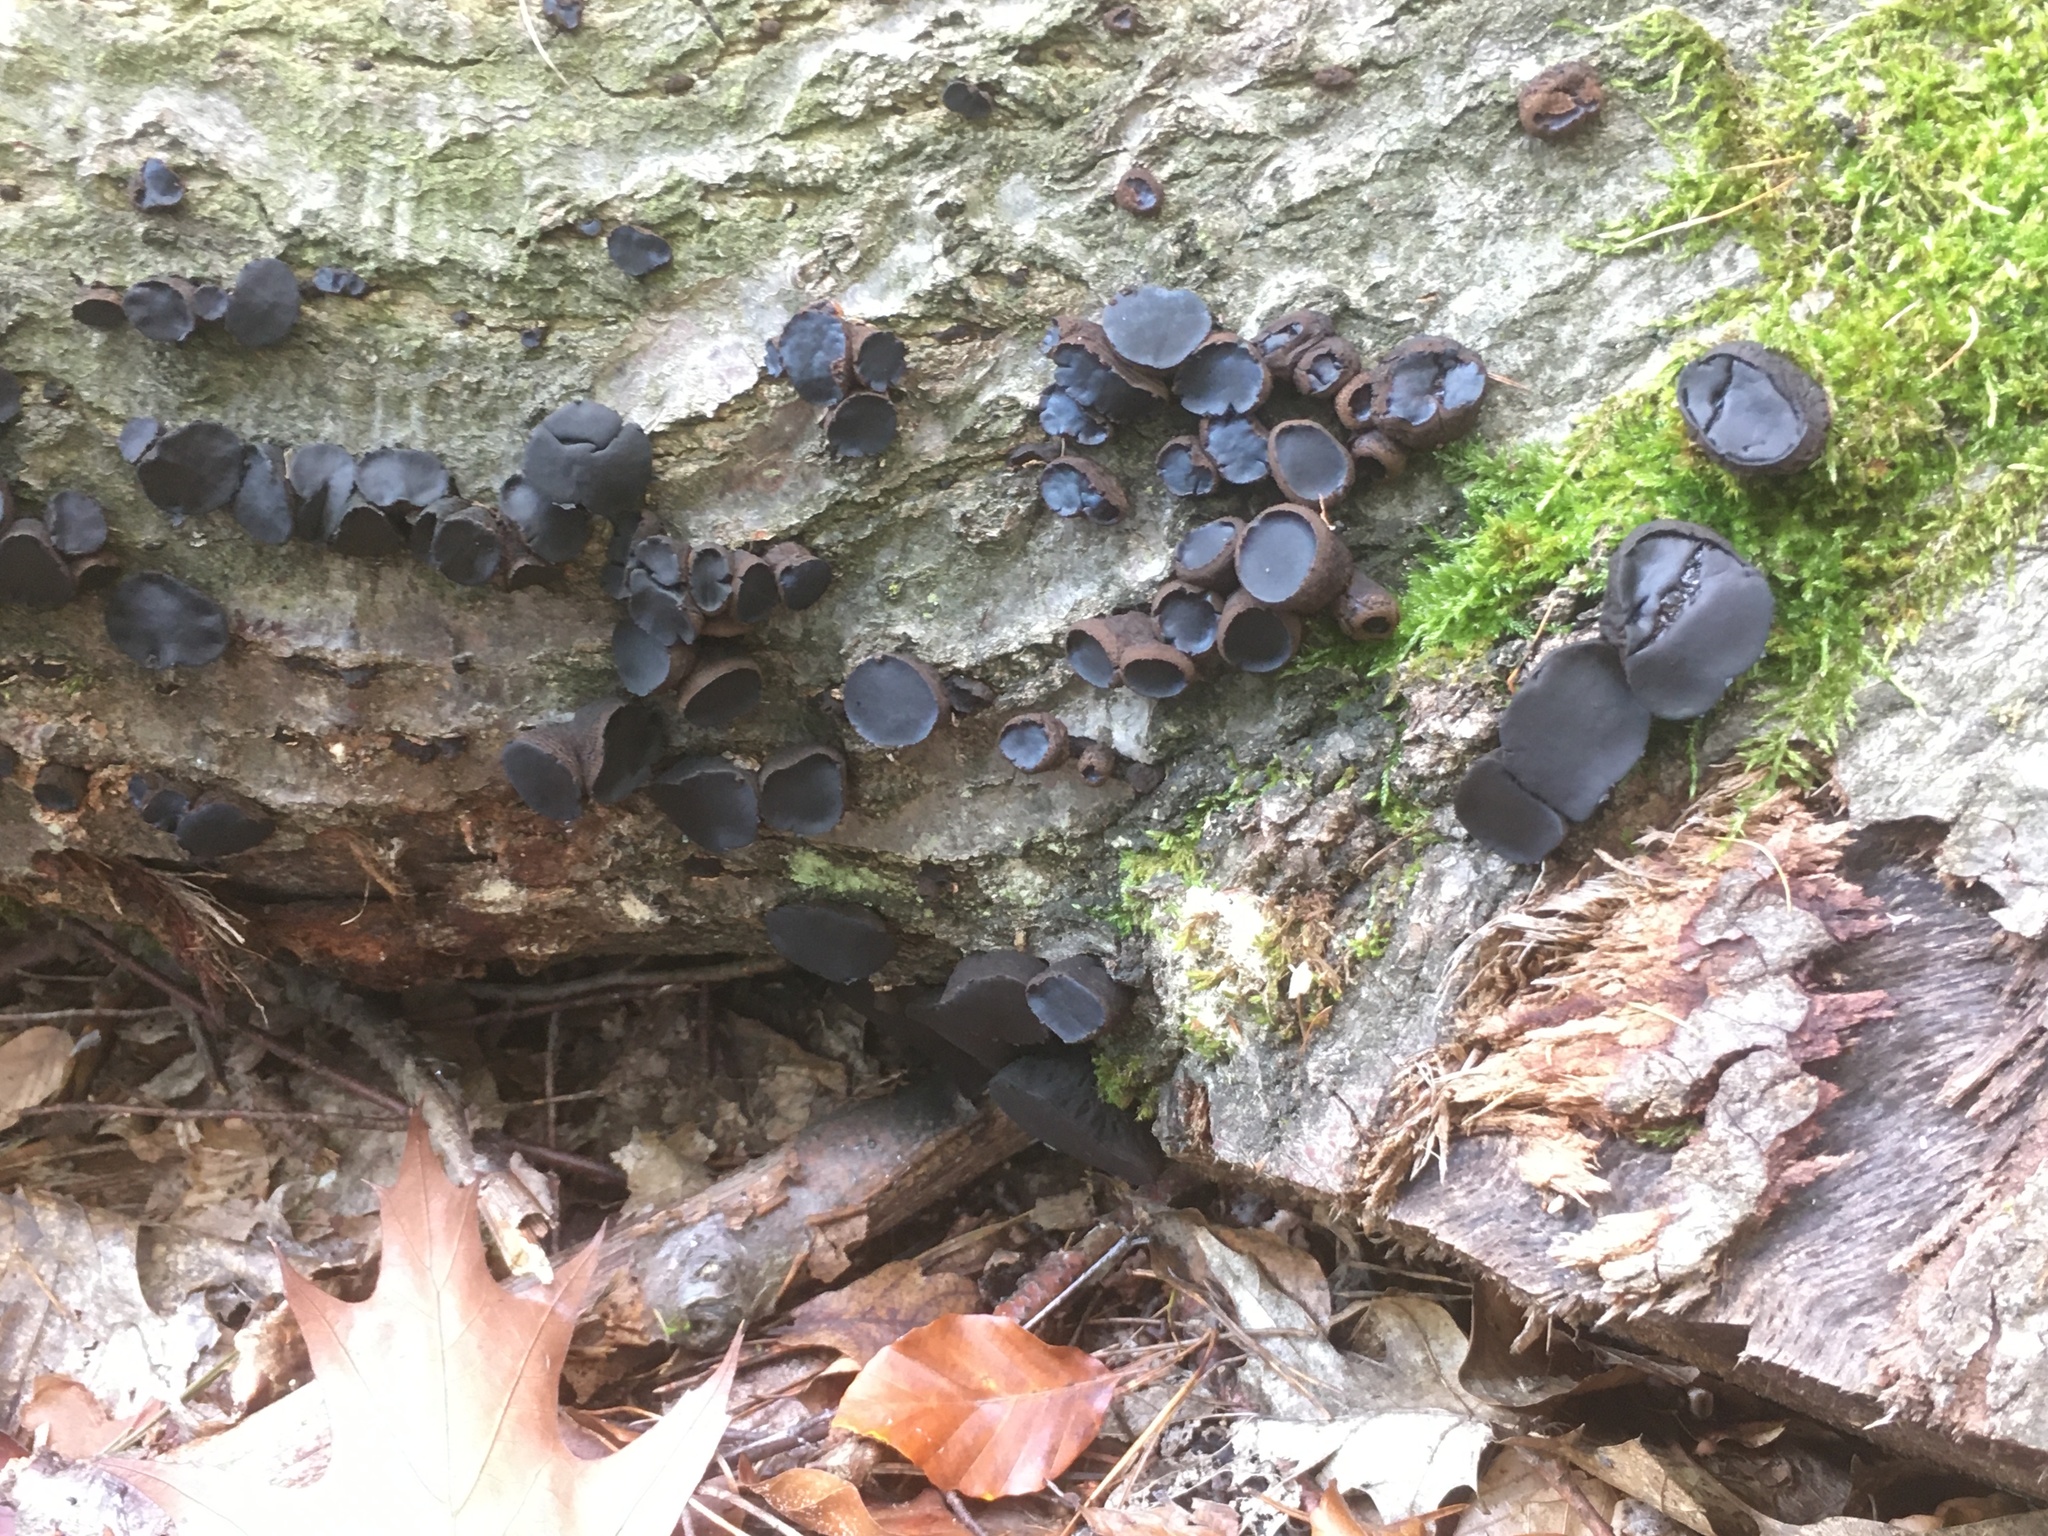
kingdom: Fungi
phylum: Ascomycota
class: Leotiomycetes
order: Phacidiales
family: Phacidiaceae
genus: Bulgaria
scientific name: Bulgaria inquinans
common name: Black bulgar
